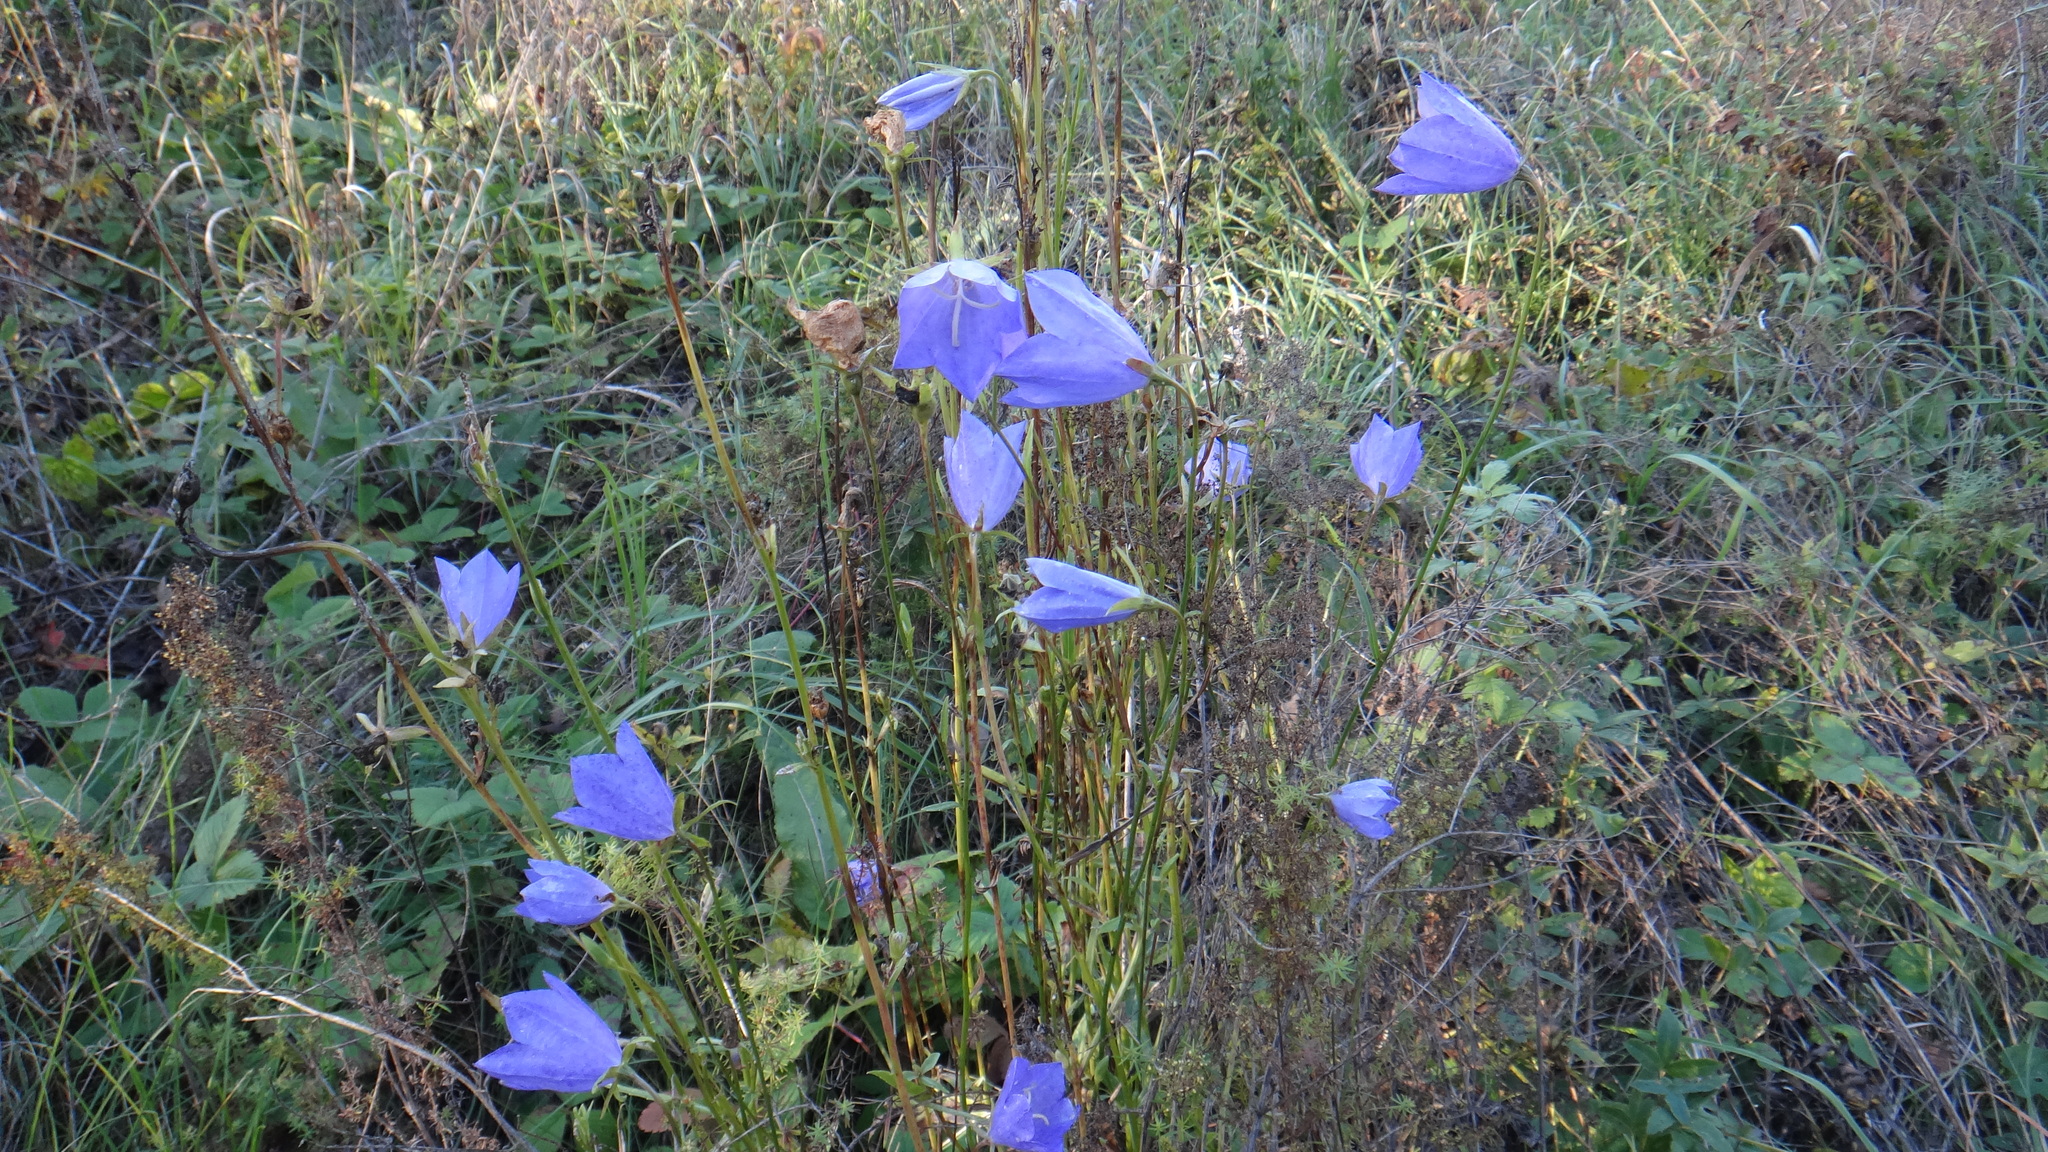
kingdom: Plantae
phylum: Tracheophyta
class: Magnoliopsida
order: Asterales
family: Campanulaceae
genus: Campanula
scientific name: Campanula persicifolia
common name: Peach-leaved bellflower
